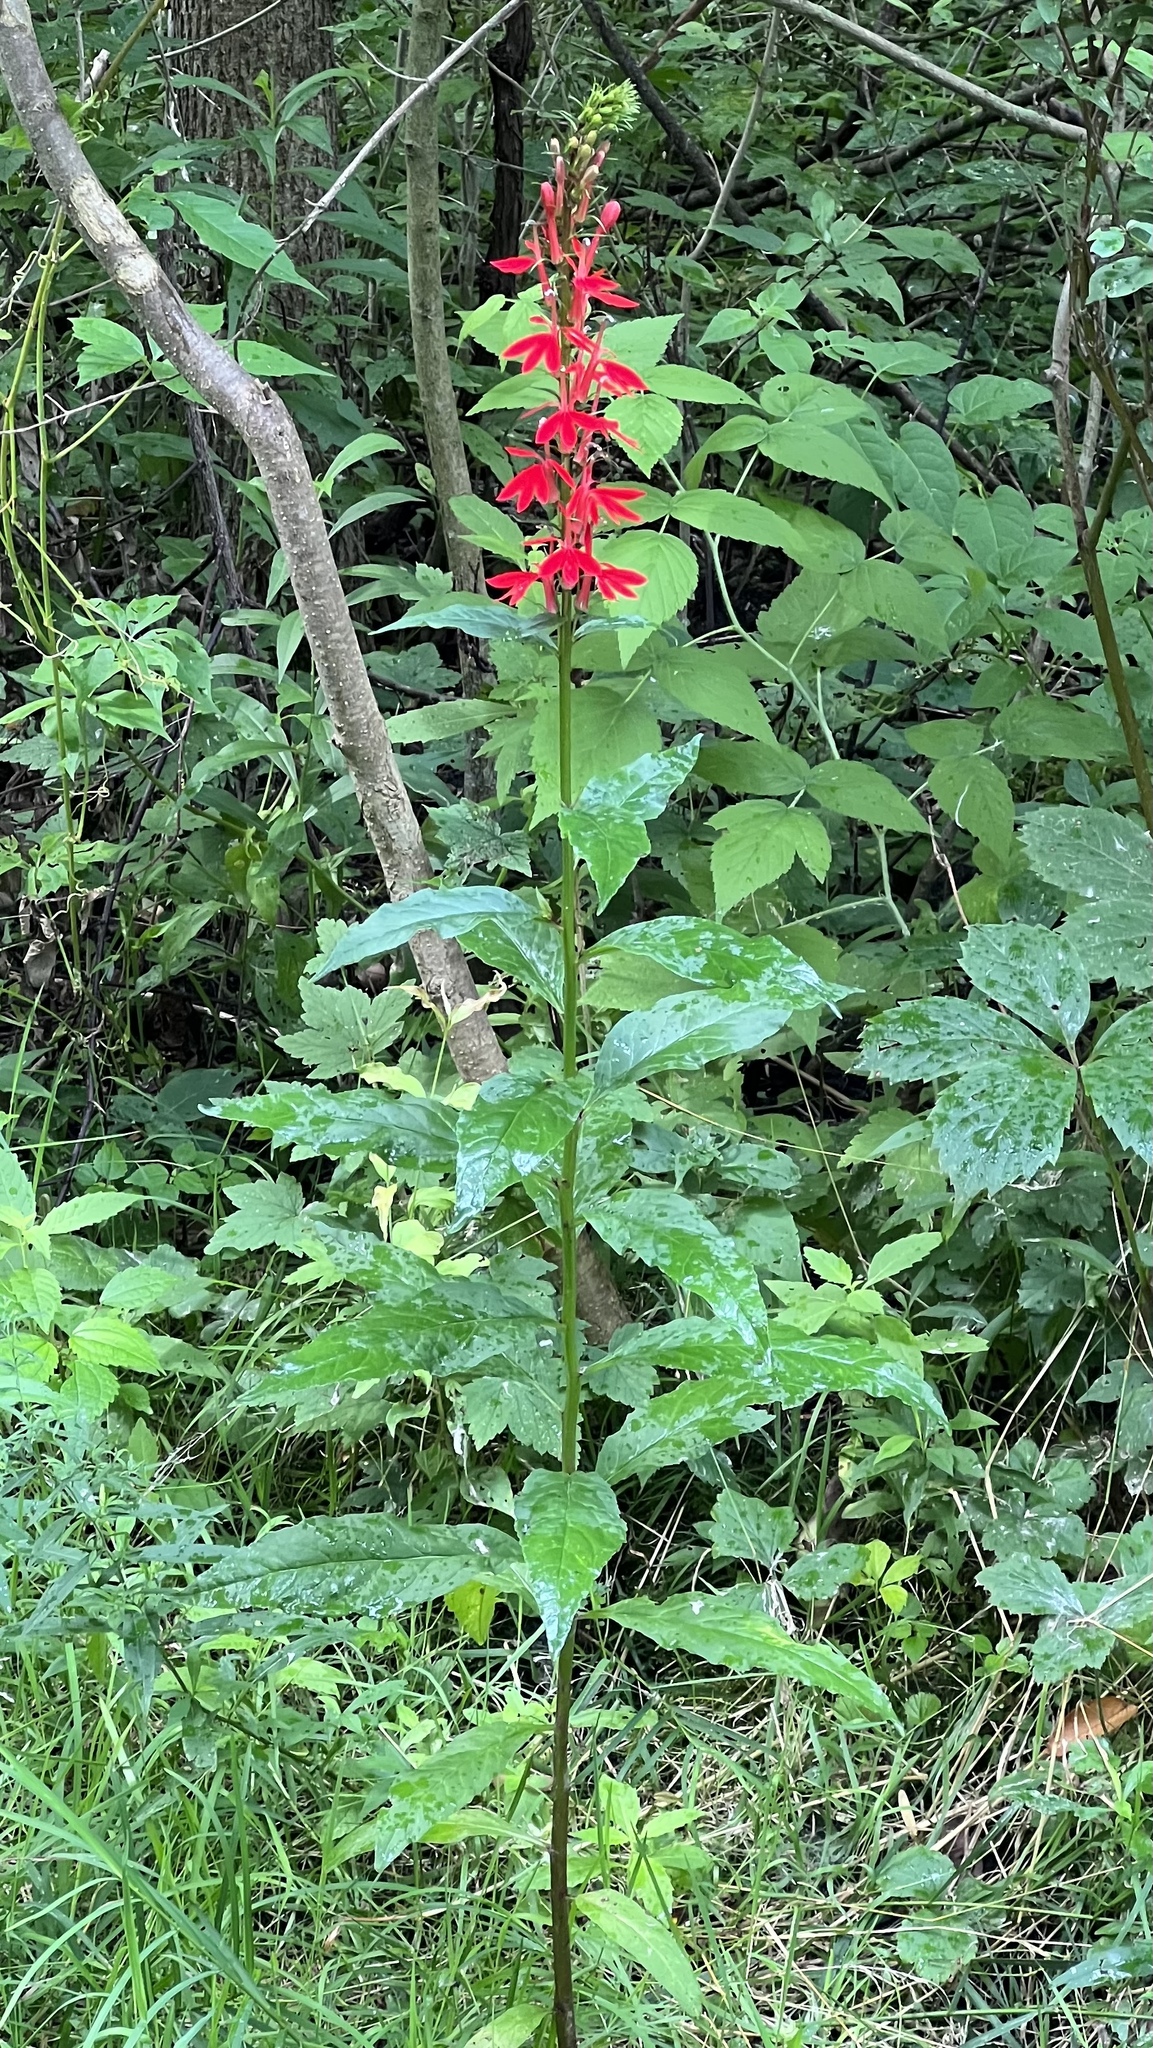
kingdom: Plantae
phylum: Tracheophyta
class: Magnoliopsida
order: Asterales
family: Campanulaceae
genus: Lobelia
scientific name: Lobelia cardinalis
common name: Cardinal flower
